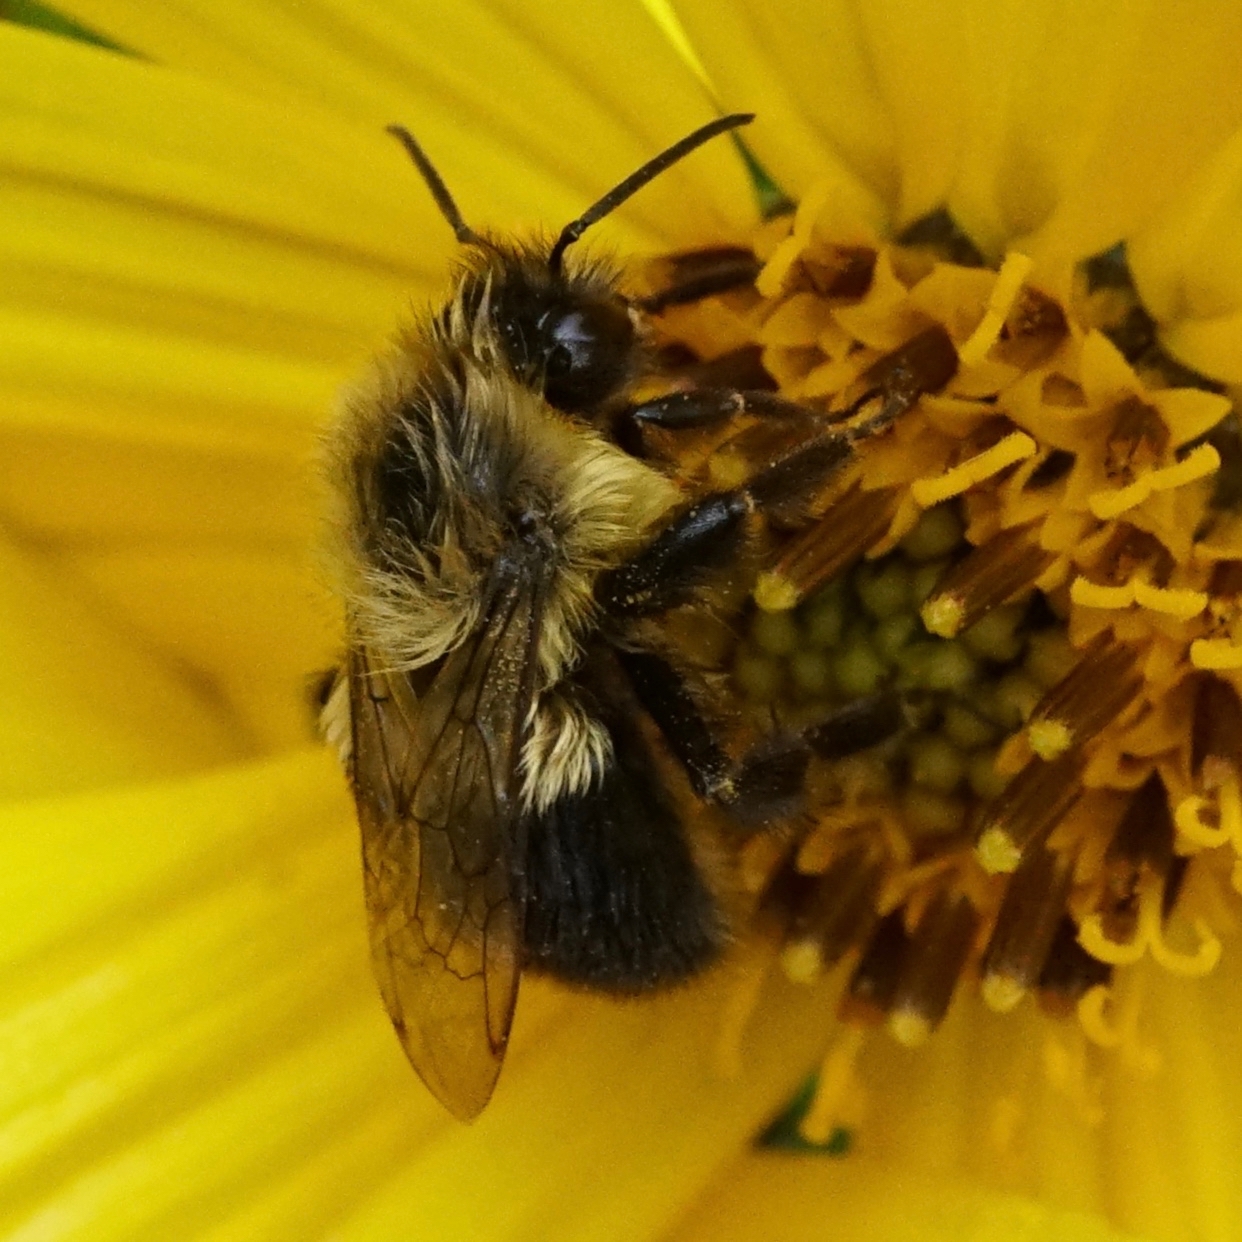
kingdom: Animalia
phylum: Arthropoda
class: Insecta
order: Hymenoptera
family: Apidae
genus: Bombus
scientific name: Bombus impatiens
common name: Common eastern bumble bee
